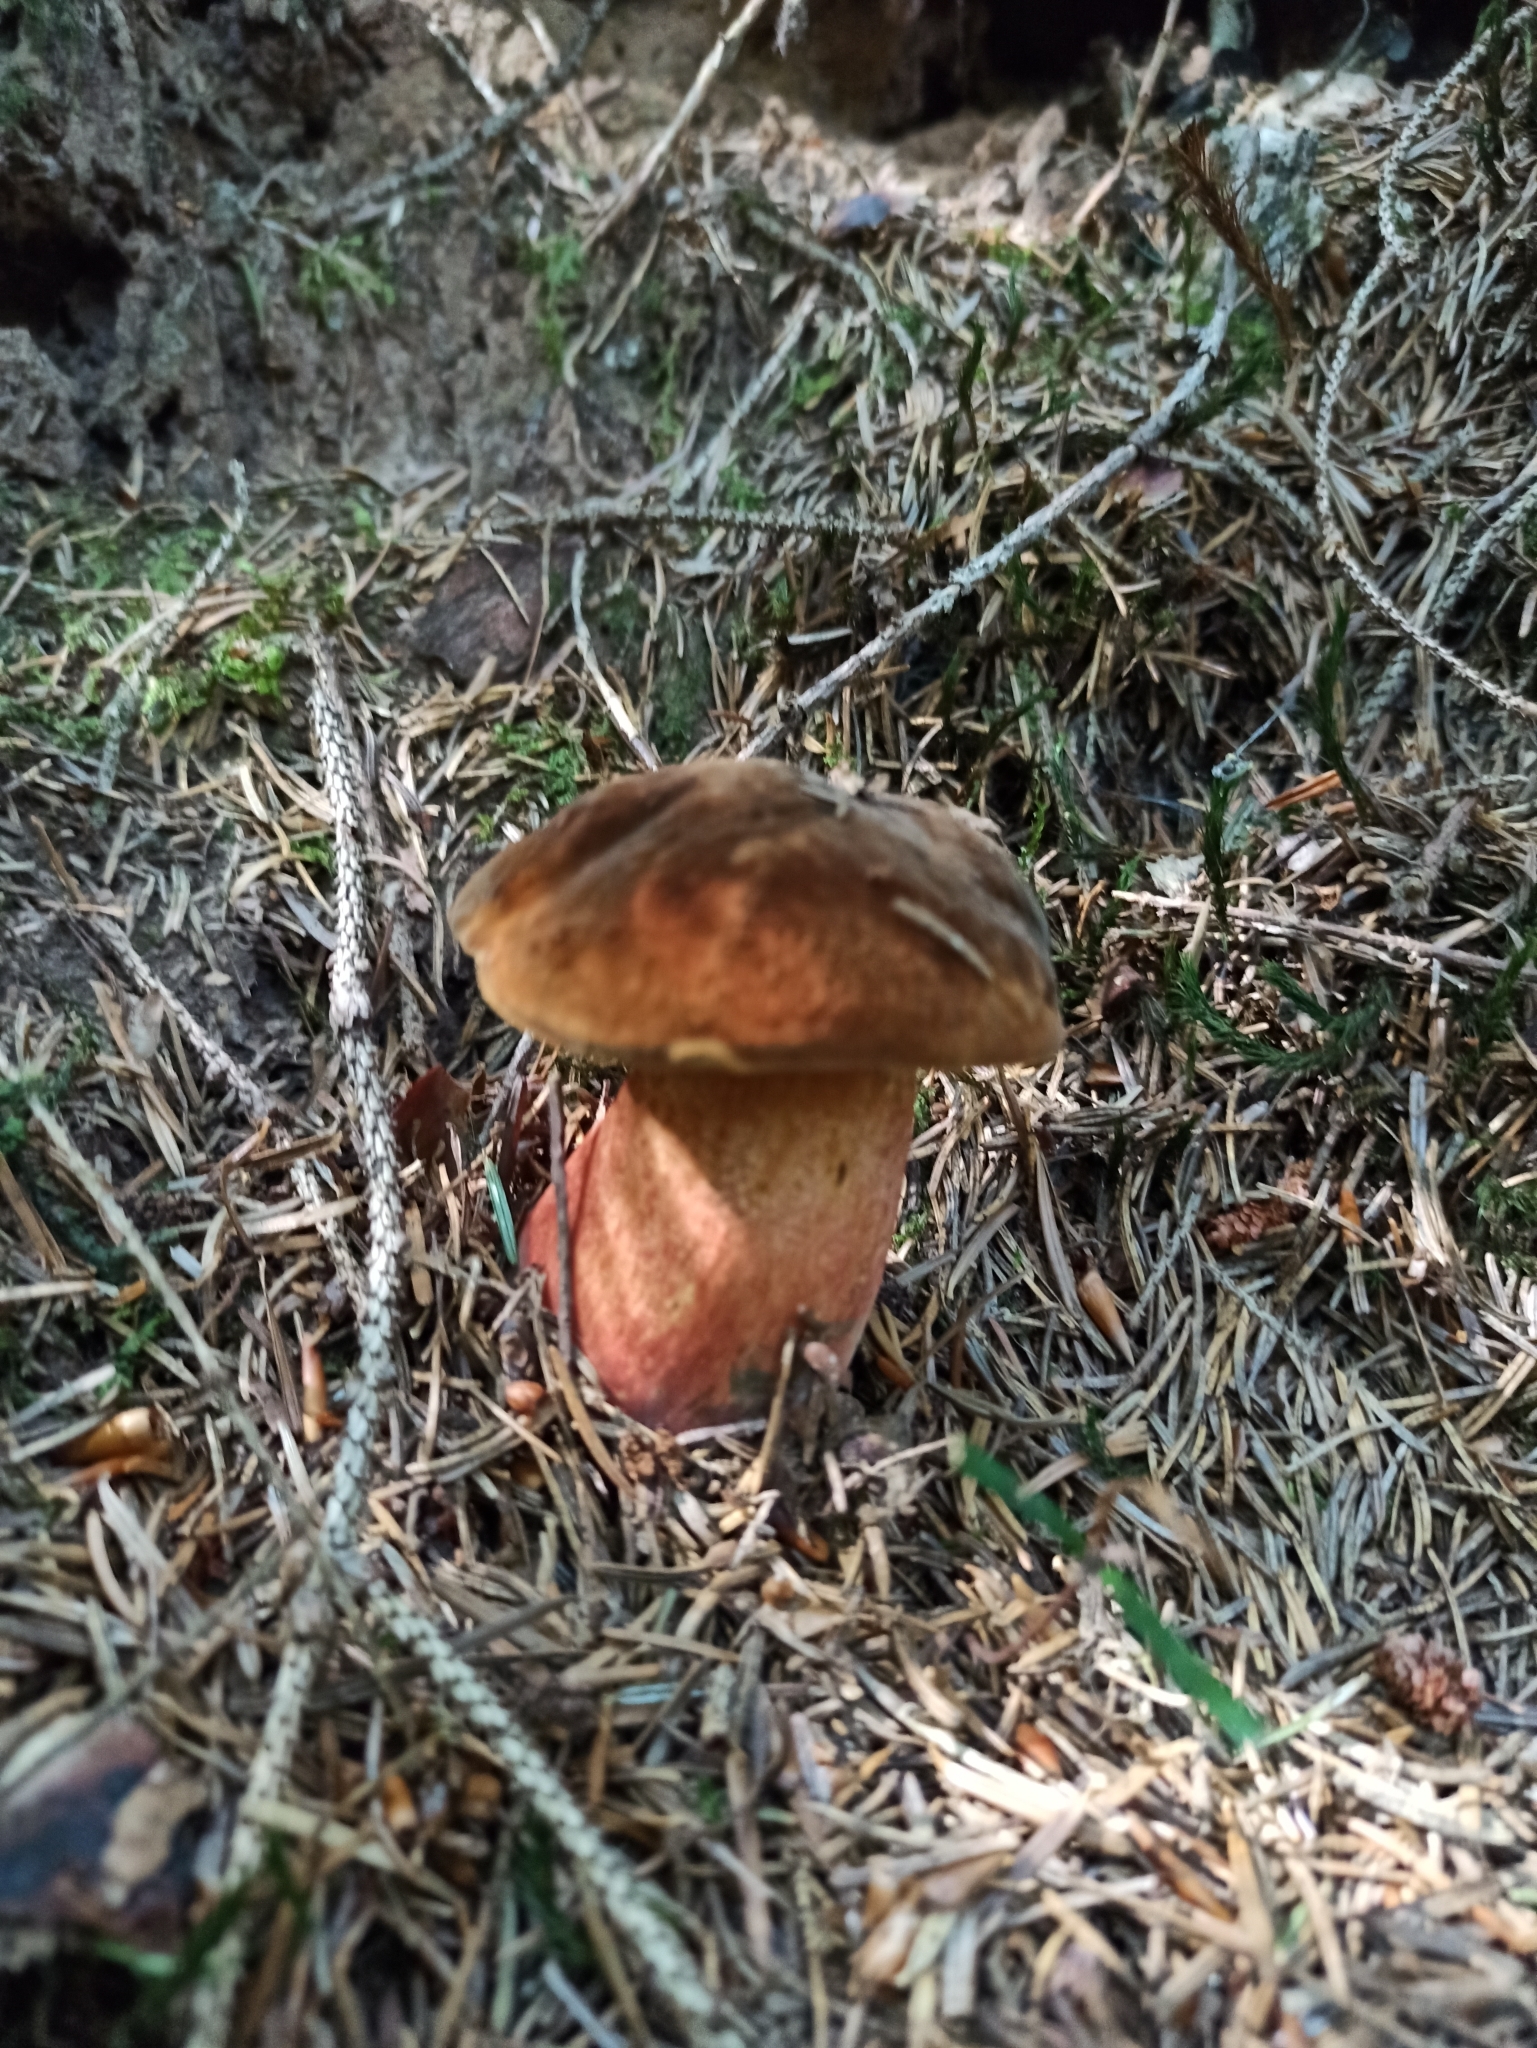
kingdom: Fungi
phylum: Basidiomycota
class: Agaricomycetes
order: Boletales
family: Boletaceae
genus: Neoboletus
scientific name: Neoboletus luridiformis
